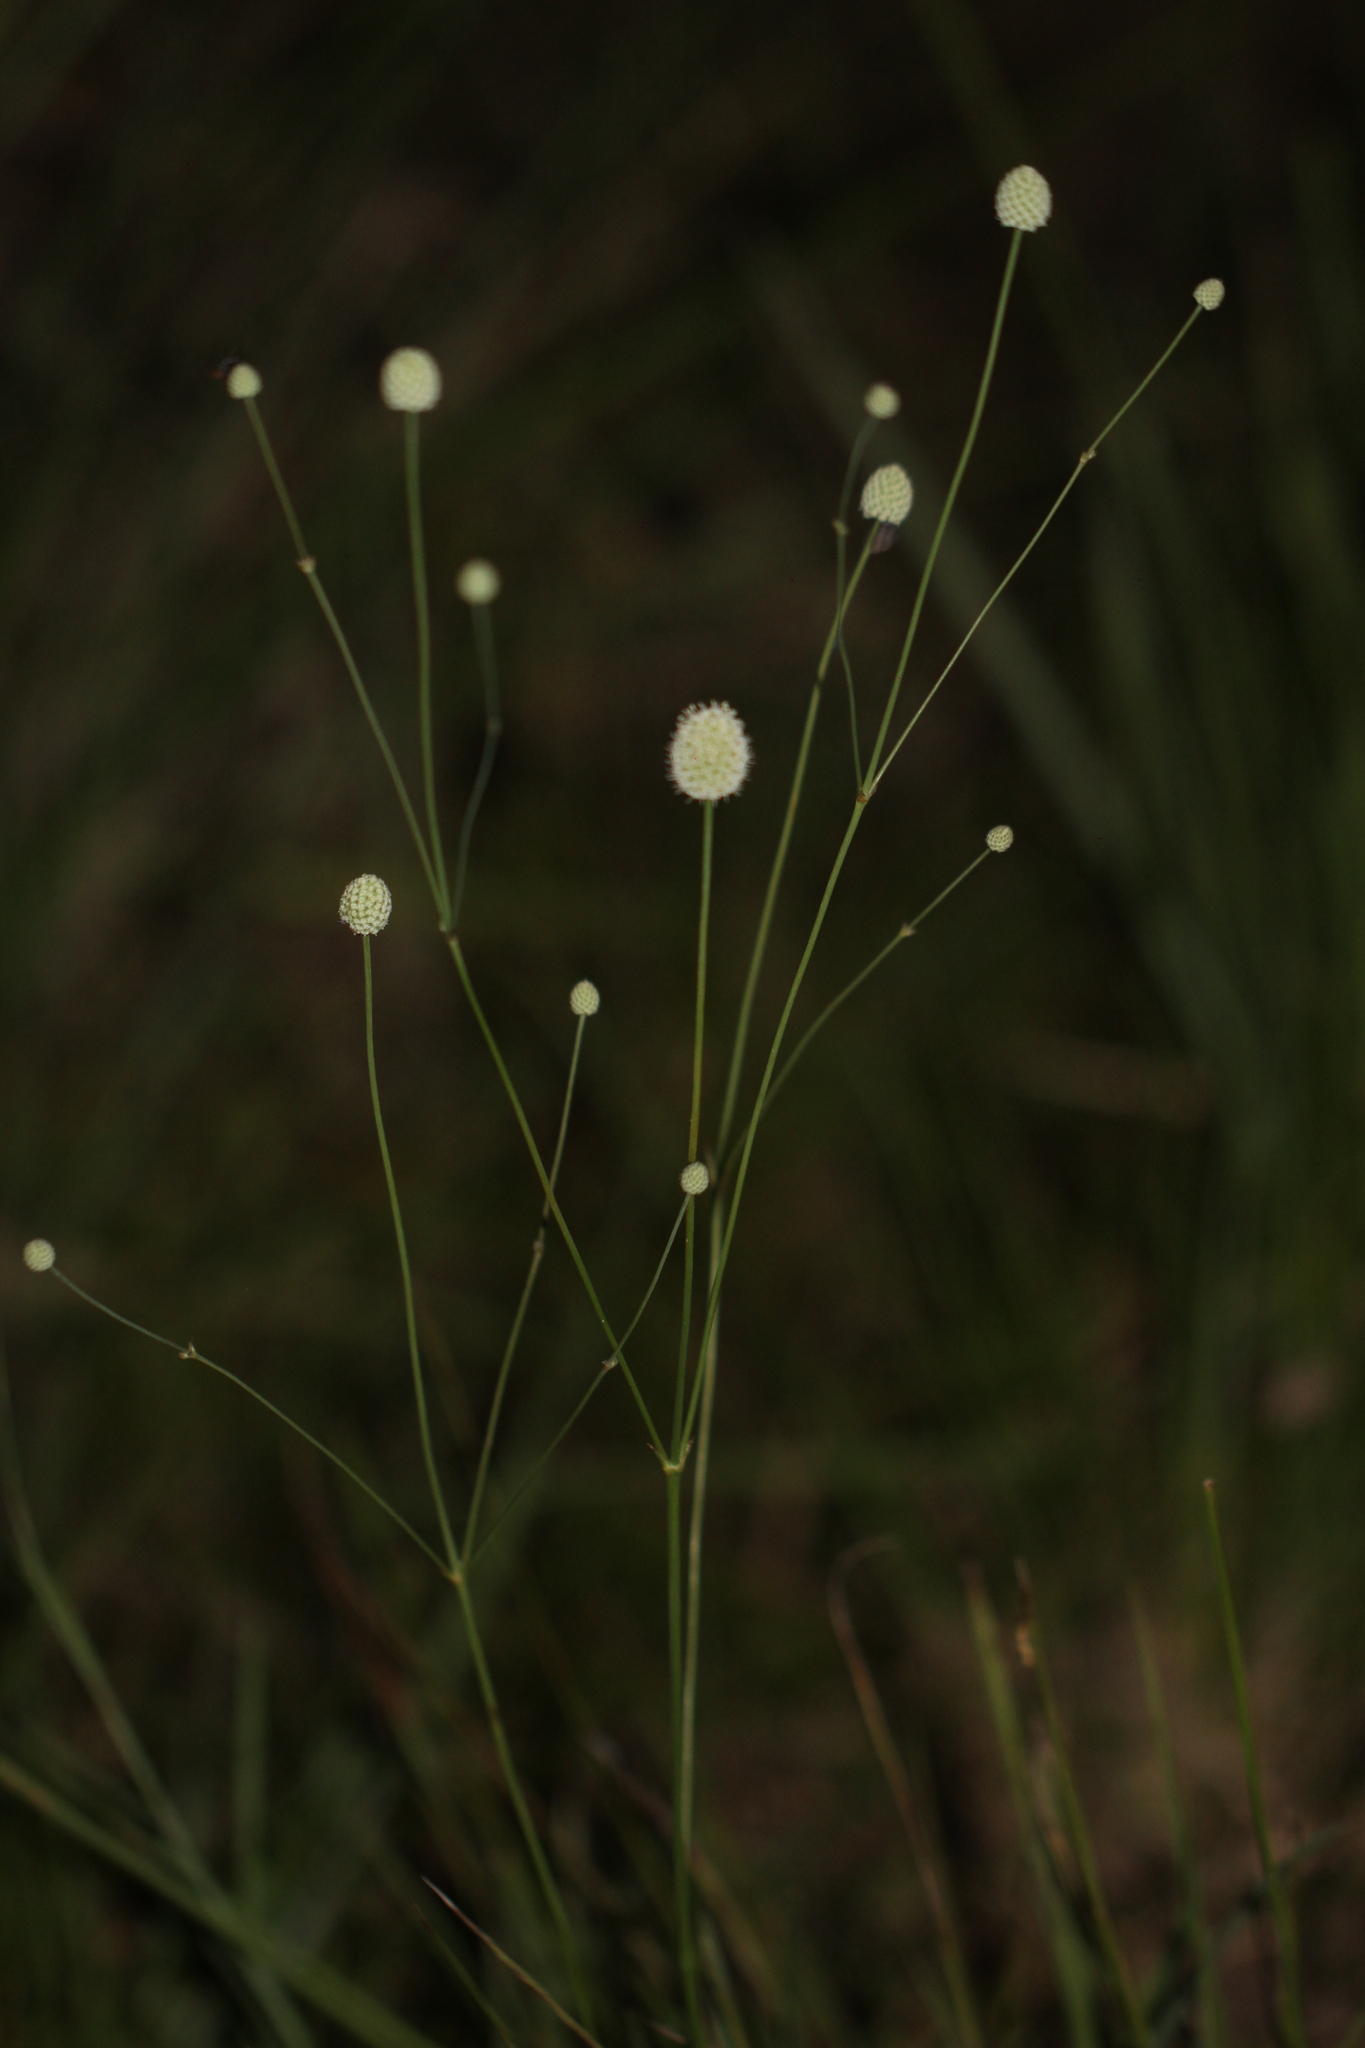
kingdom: Plantae
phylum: Tracheophyta
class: Magnoliopsida
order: Apiales
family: Apiaceae
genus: Eryngium
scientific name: Eryngium luzulifolium
